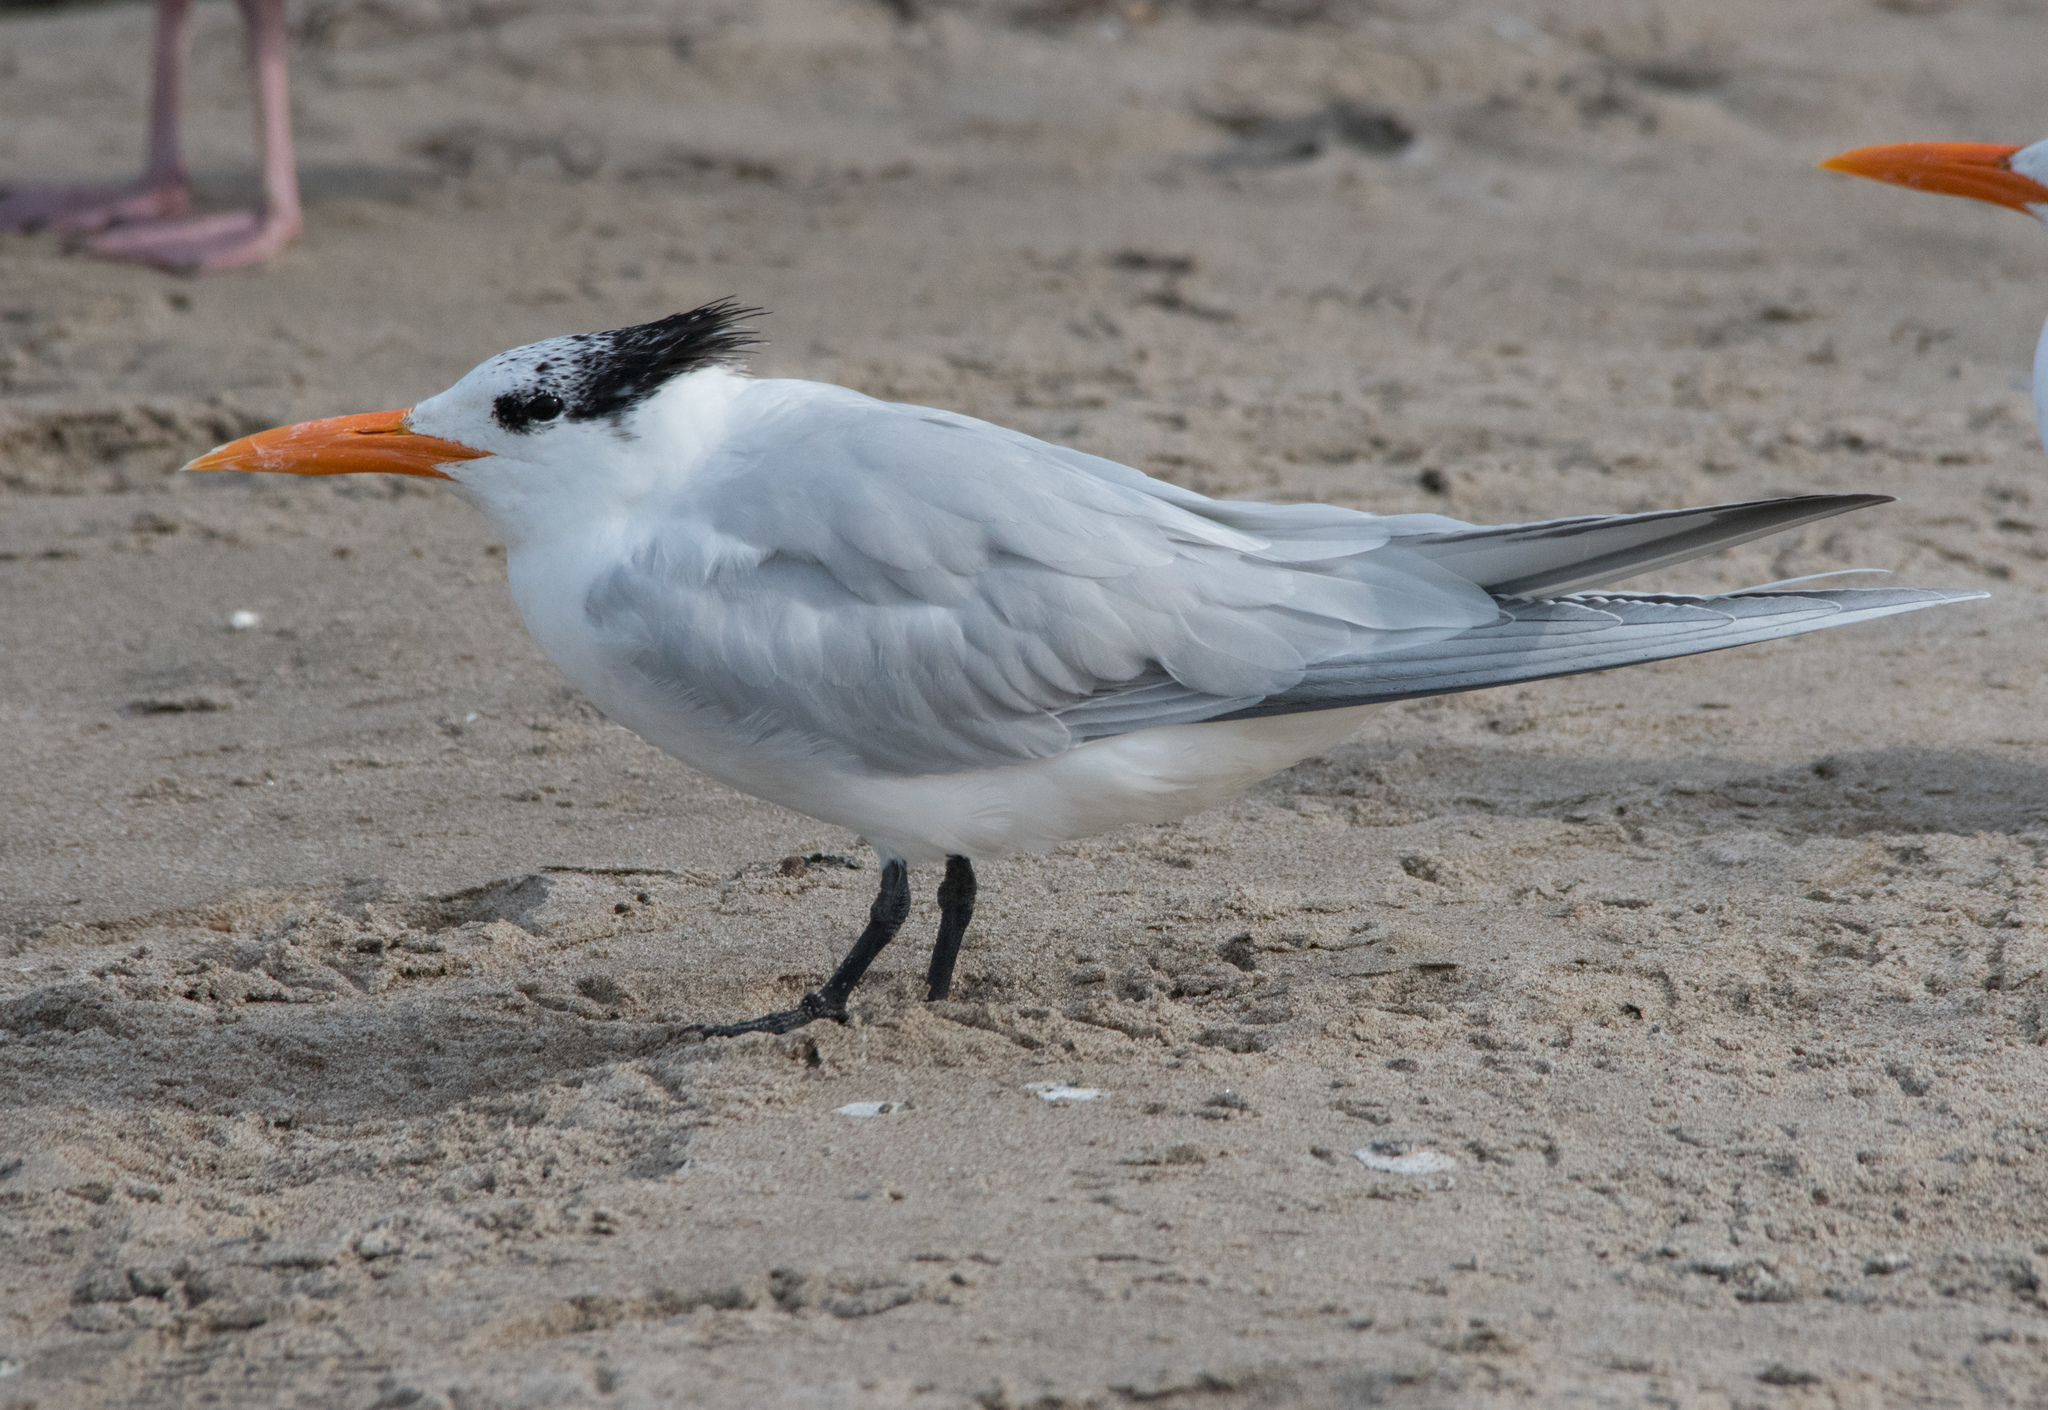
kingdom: Animalia
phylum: Chordata
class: Aves
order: Charadriiformes
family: Laridae
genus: Thalasseus
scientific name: Thalasseus maximus
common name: Royal tern
